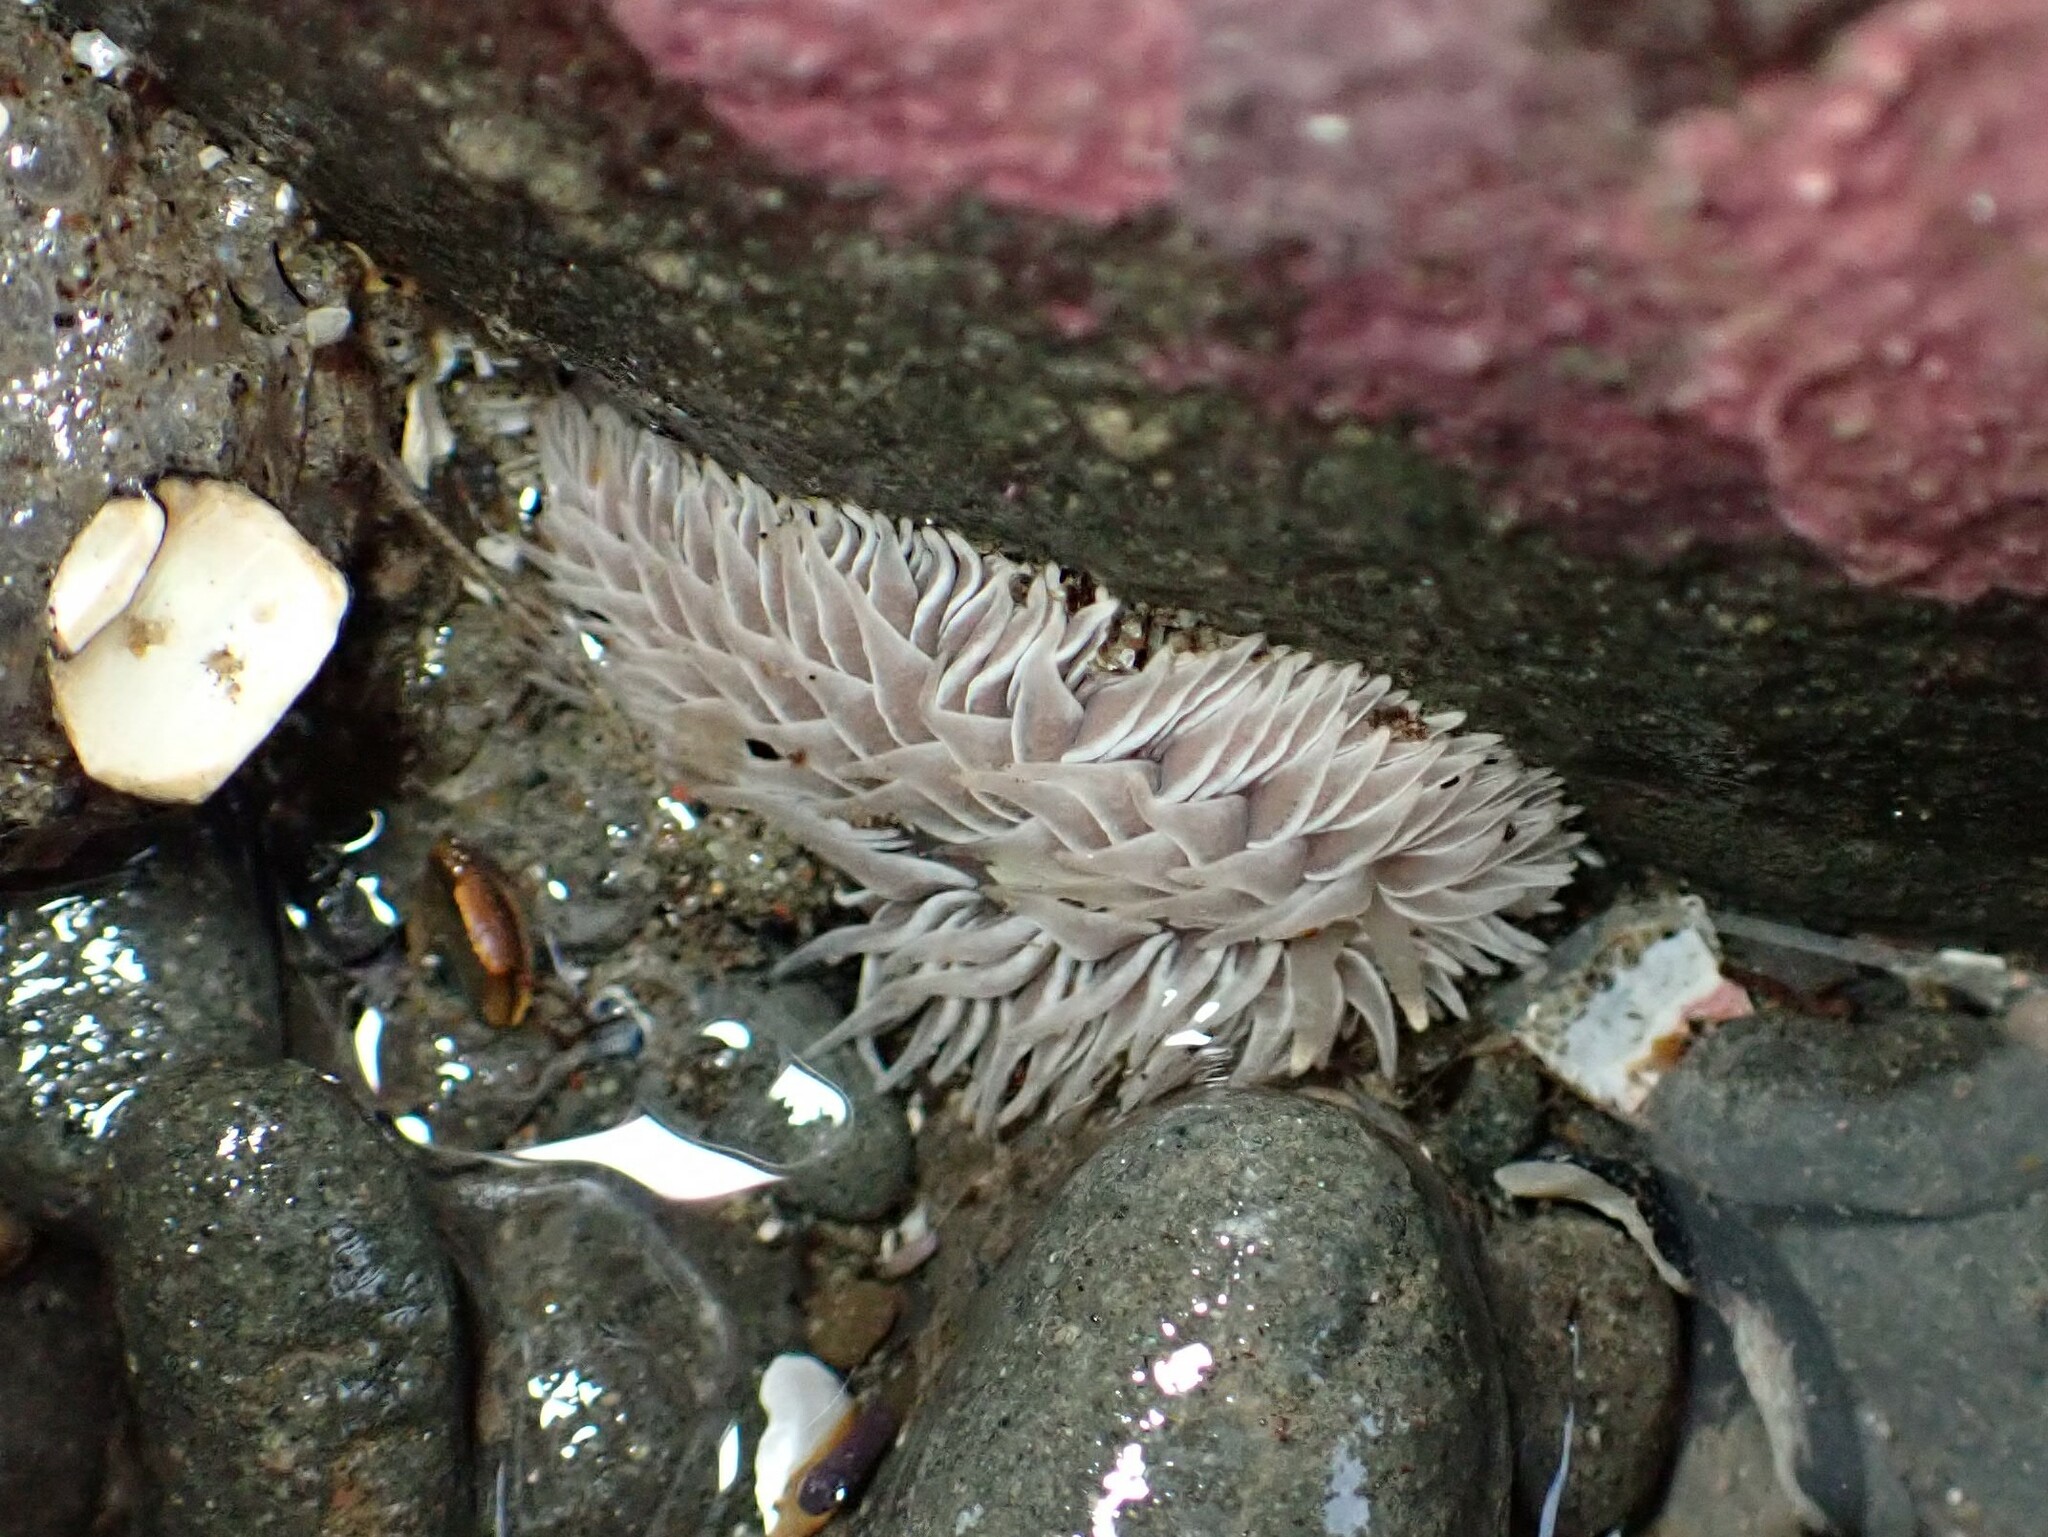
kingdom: Animalia
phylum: Mollusca
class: Gastropoda
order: Nudibranchia
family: Aeolidiidae
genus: Aeolidia
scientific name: Aeolidia loui
